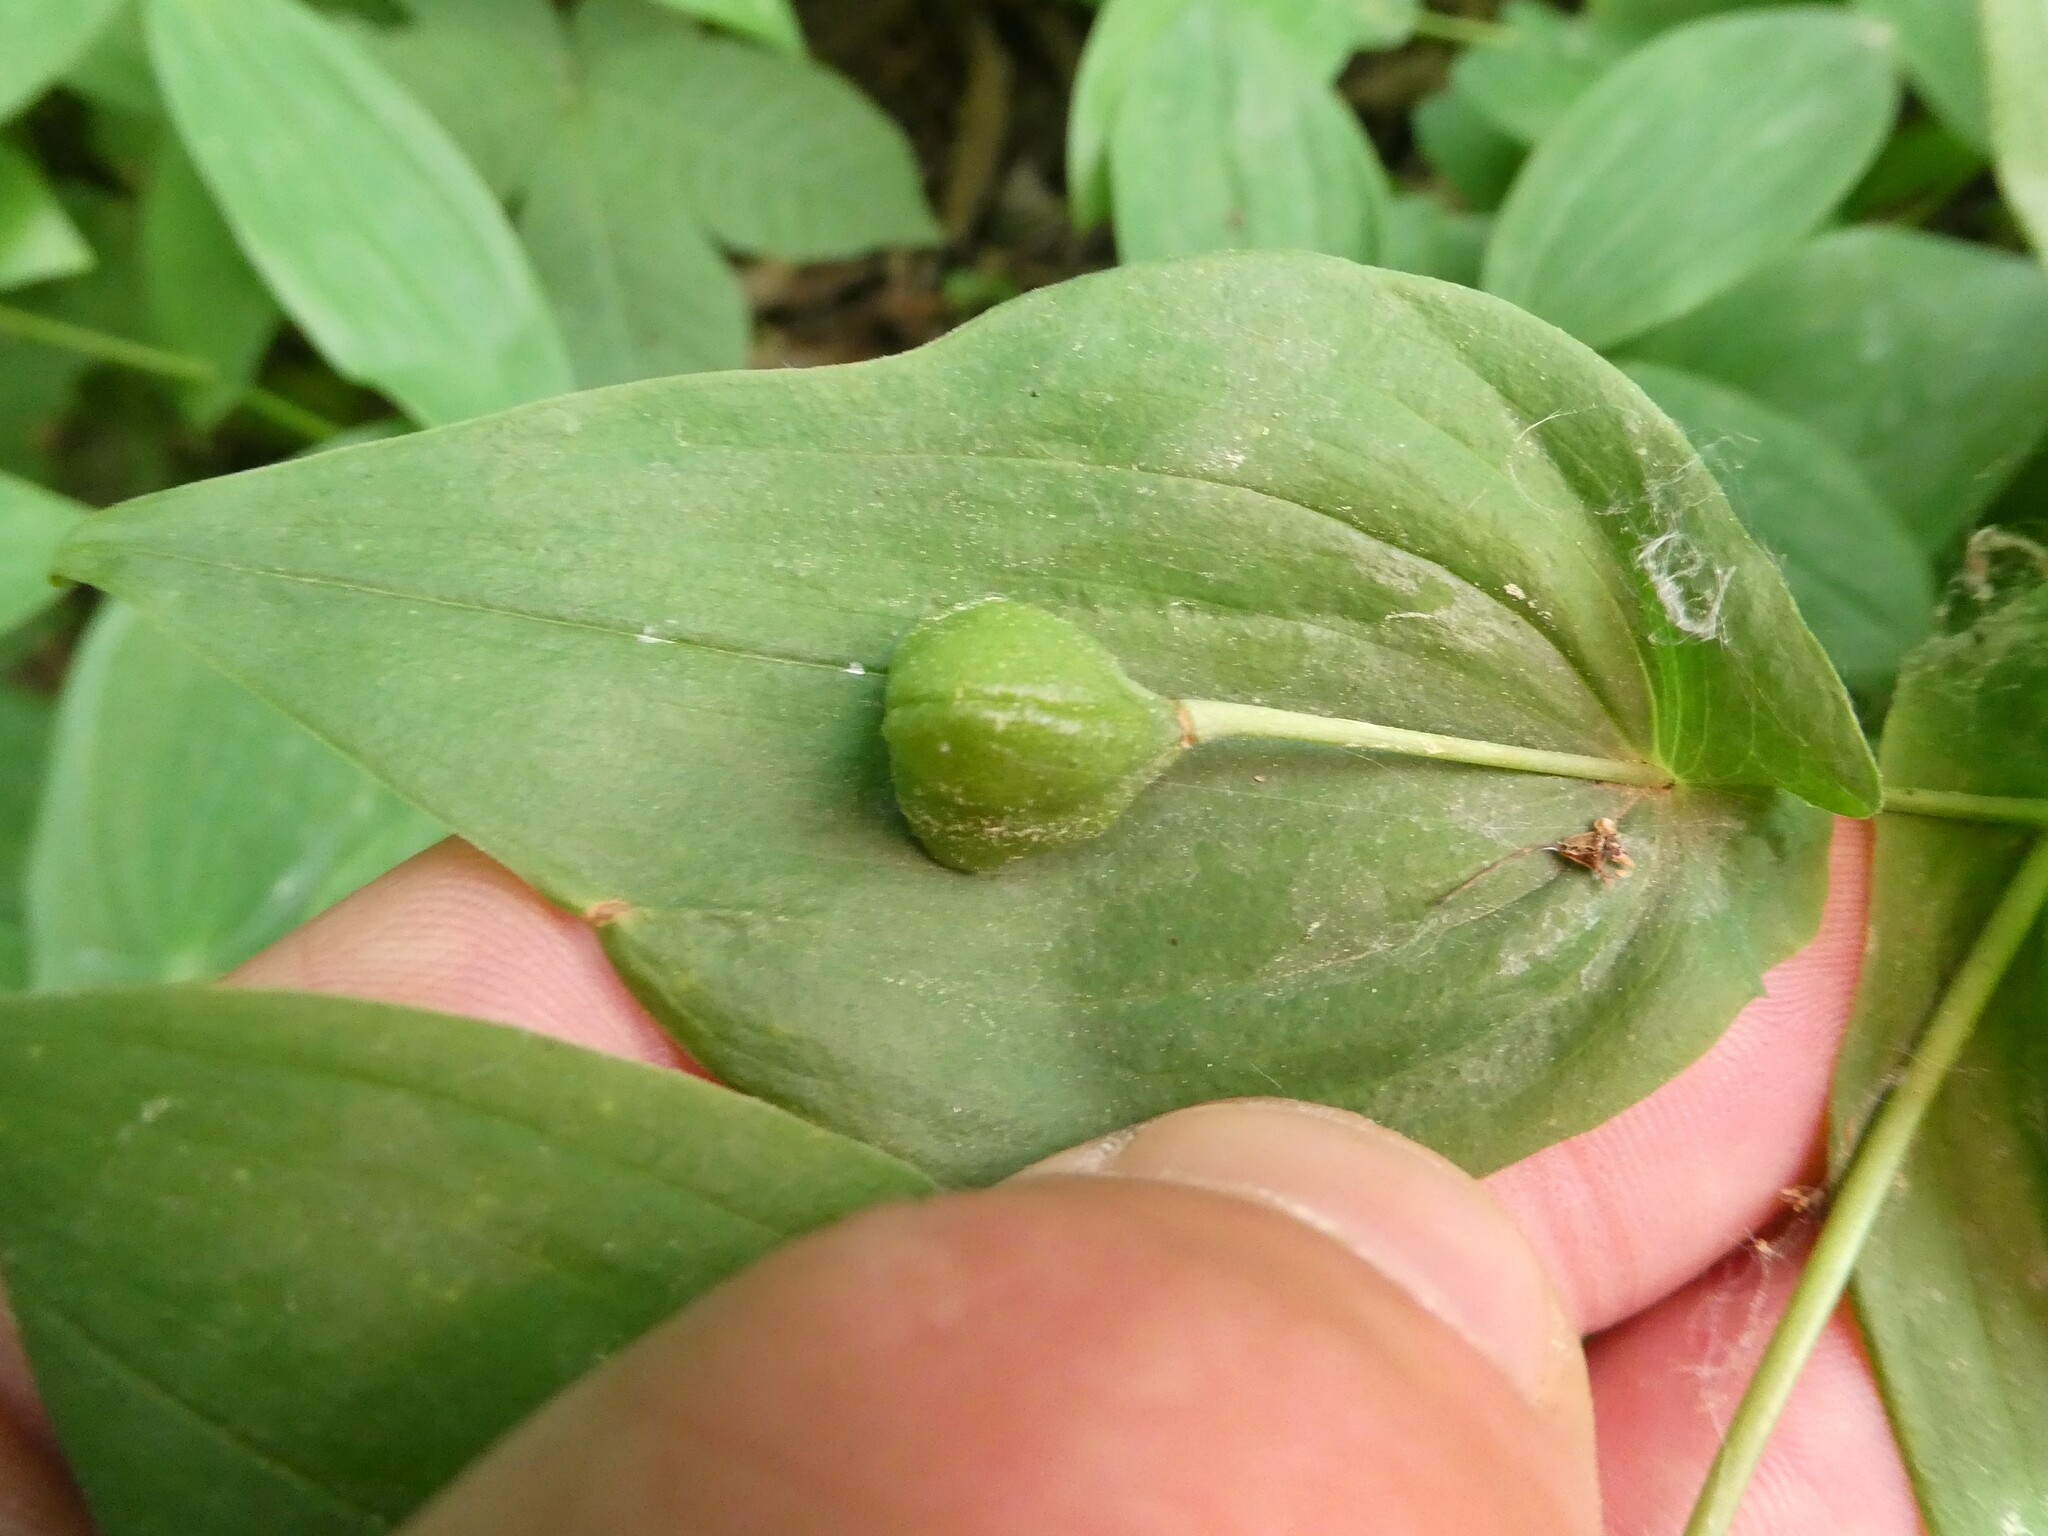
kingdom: Plantae
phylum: Tracheophyta
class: Liliopsida
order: Liliales
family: Colchicaceae
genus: Uvularia
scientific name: Uvularia grandiflora
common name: Bellwort
